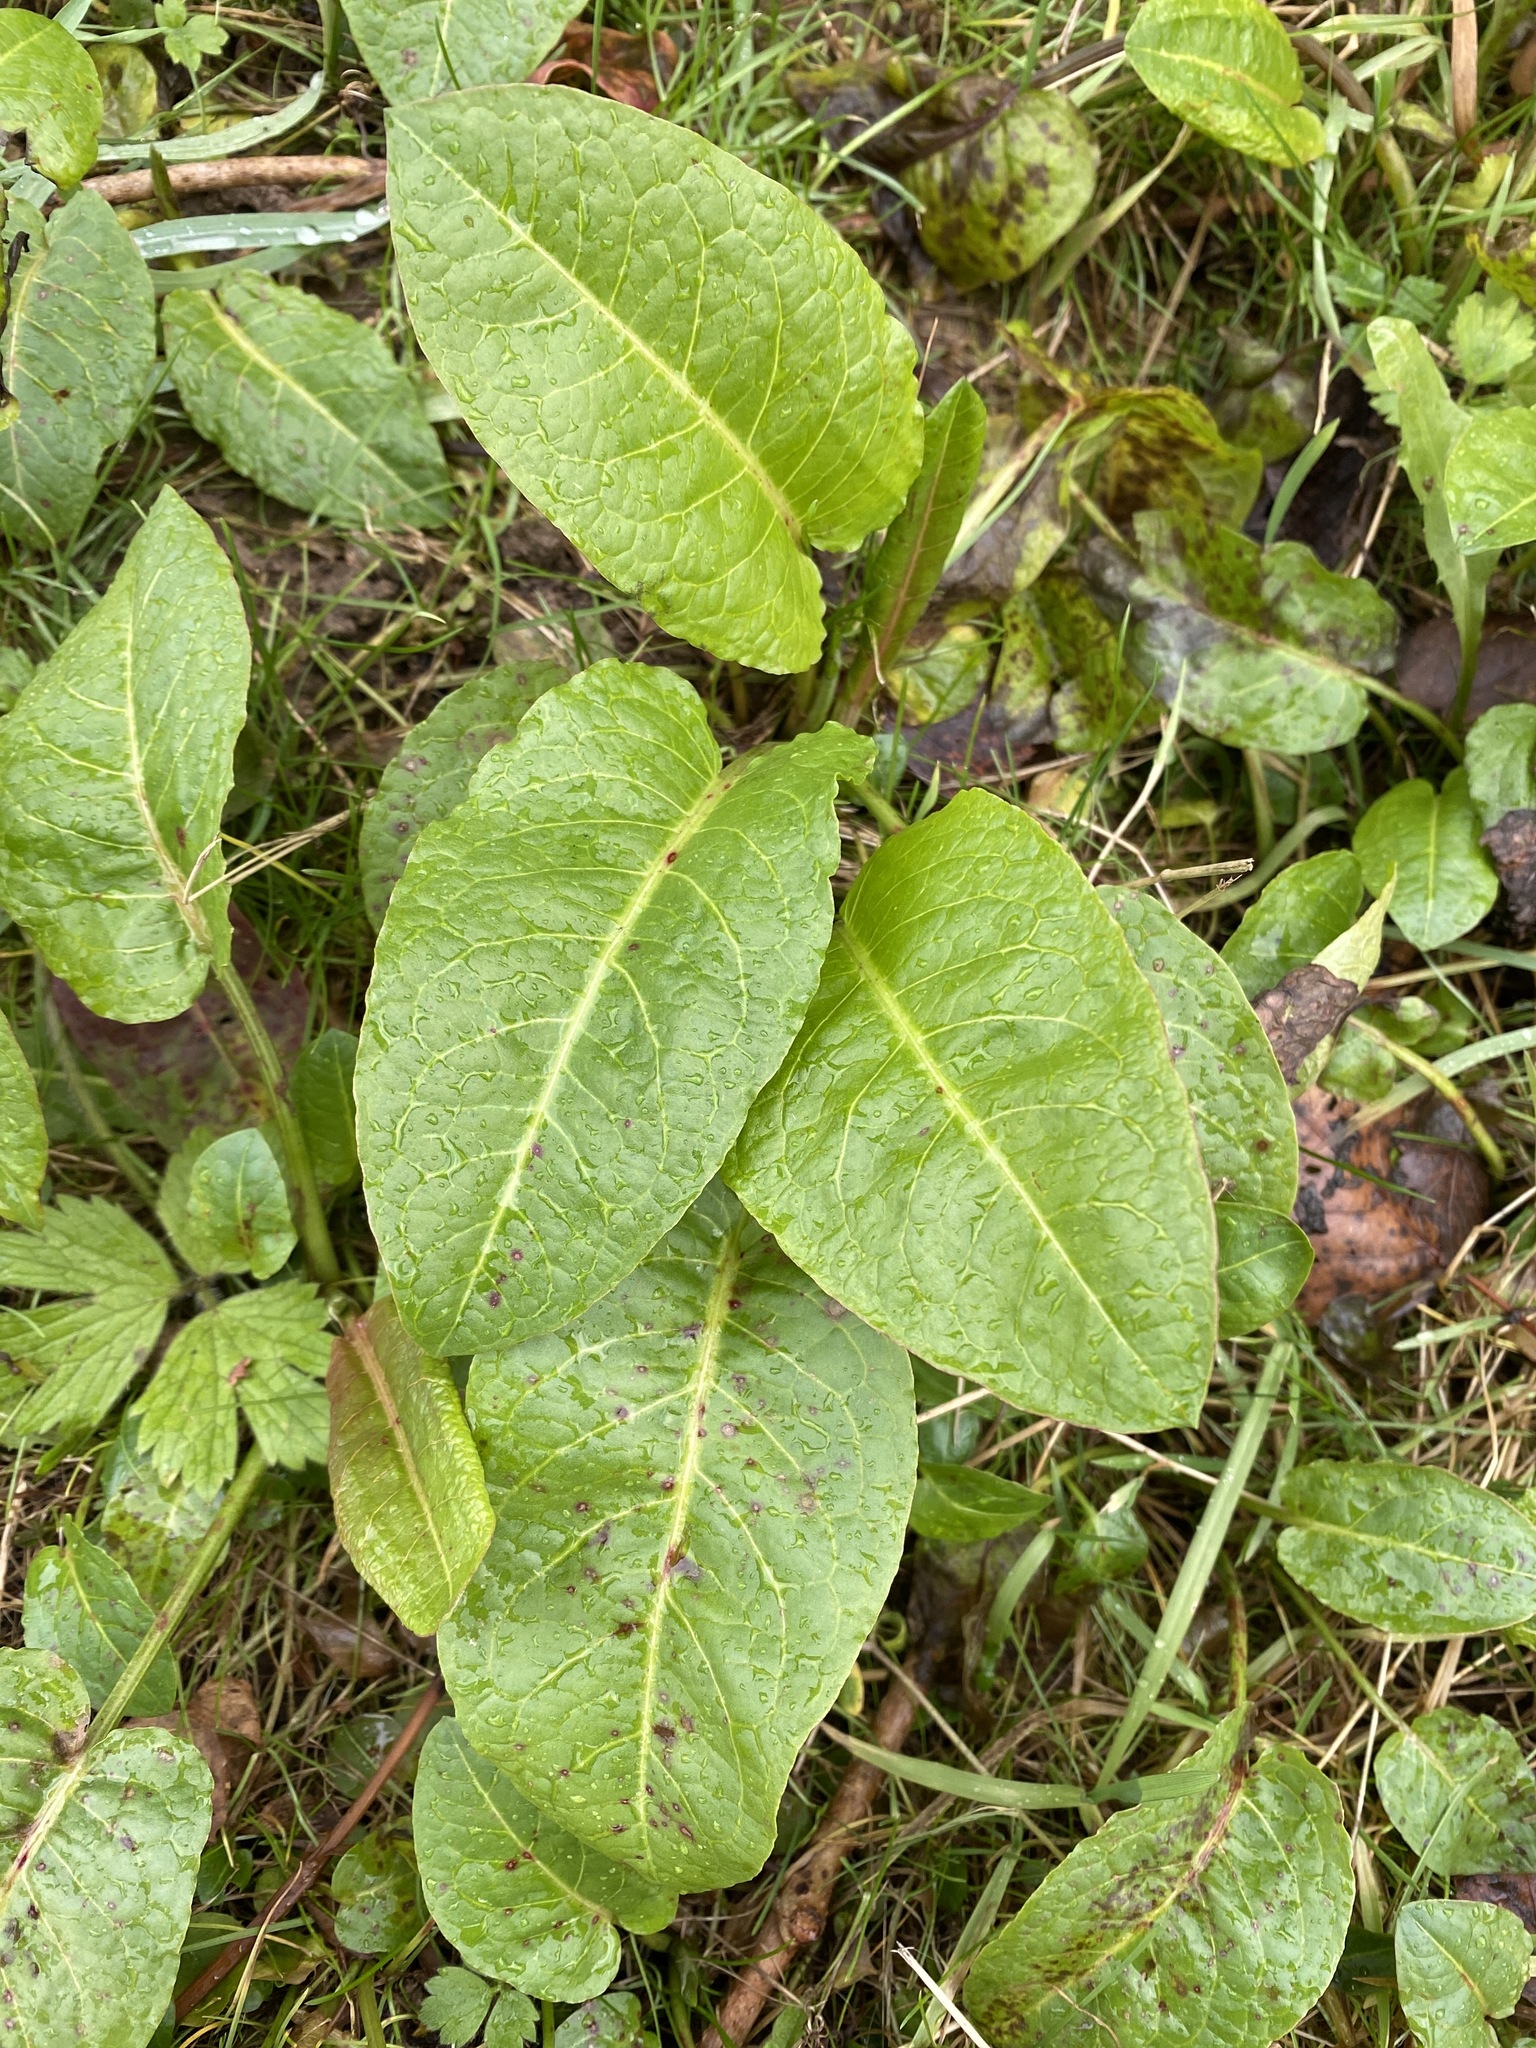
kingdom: Plantae
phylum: Tracheophyta
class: Magnoliopsida
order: Caryophyllales
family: Polygonaceae
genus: Rumex
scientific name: Rumex obtusifolius
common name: Bitter dock
